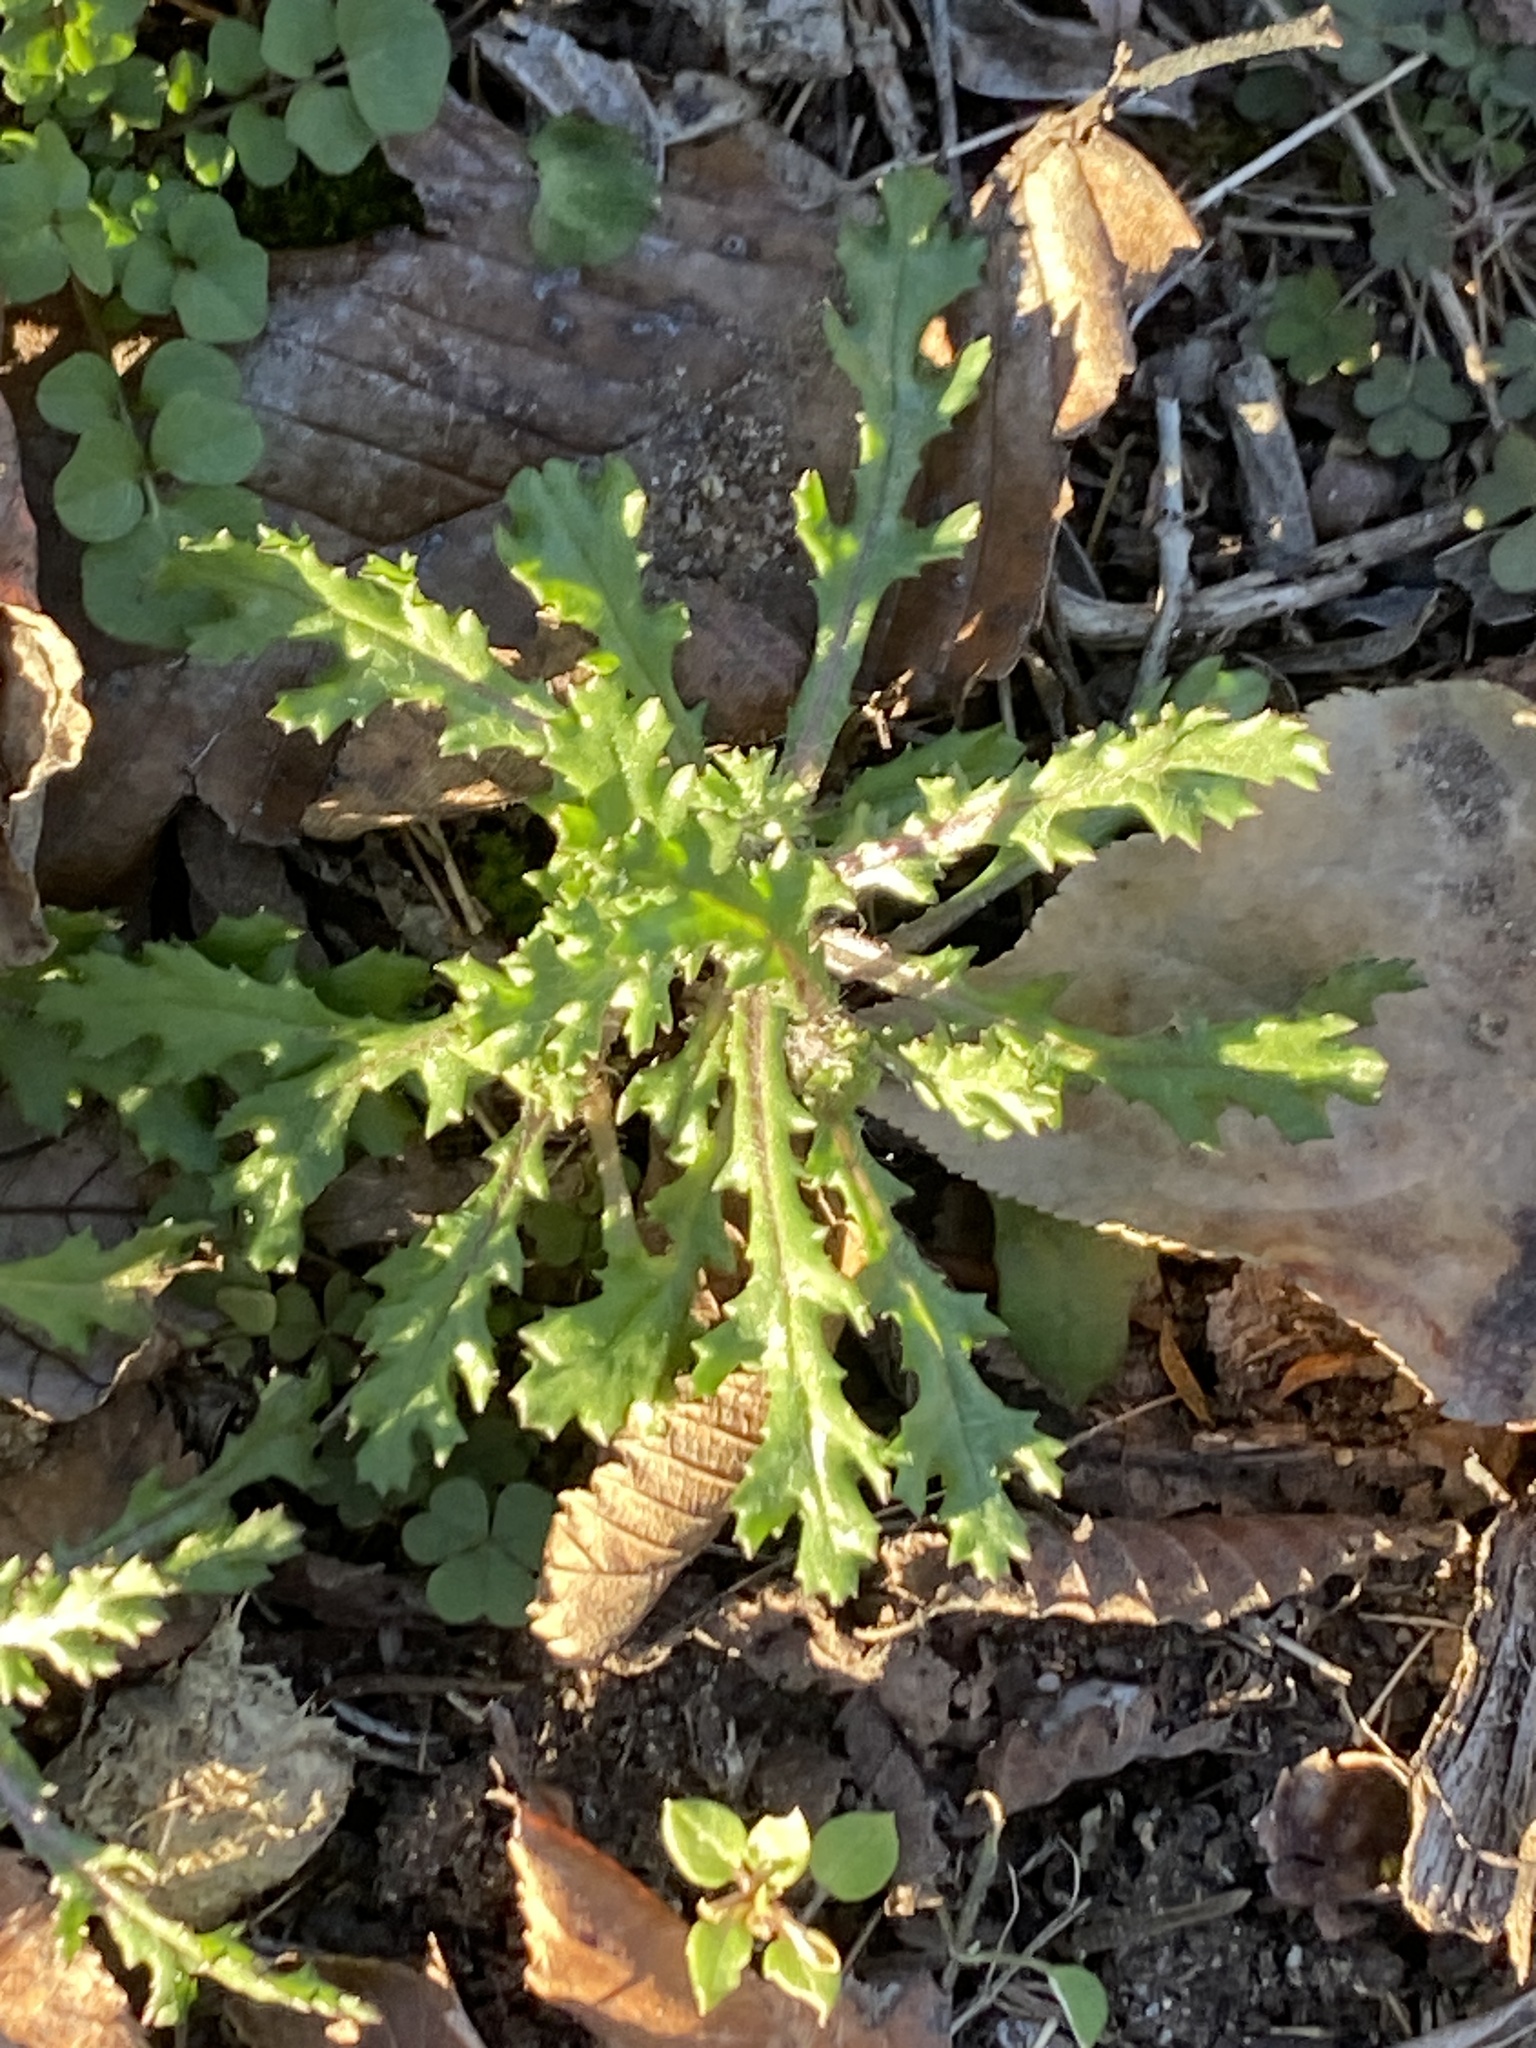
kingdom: Plantae
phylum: Tracheophyta
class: Magnoliopsida
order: Asterales
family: Asteraceae
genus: Senecio
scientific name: Senecio vulgaris
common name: Old-man-in-the-spring
